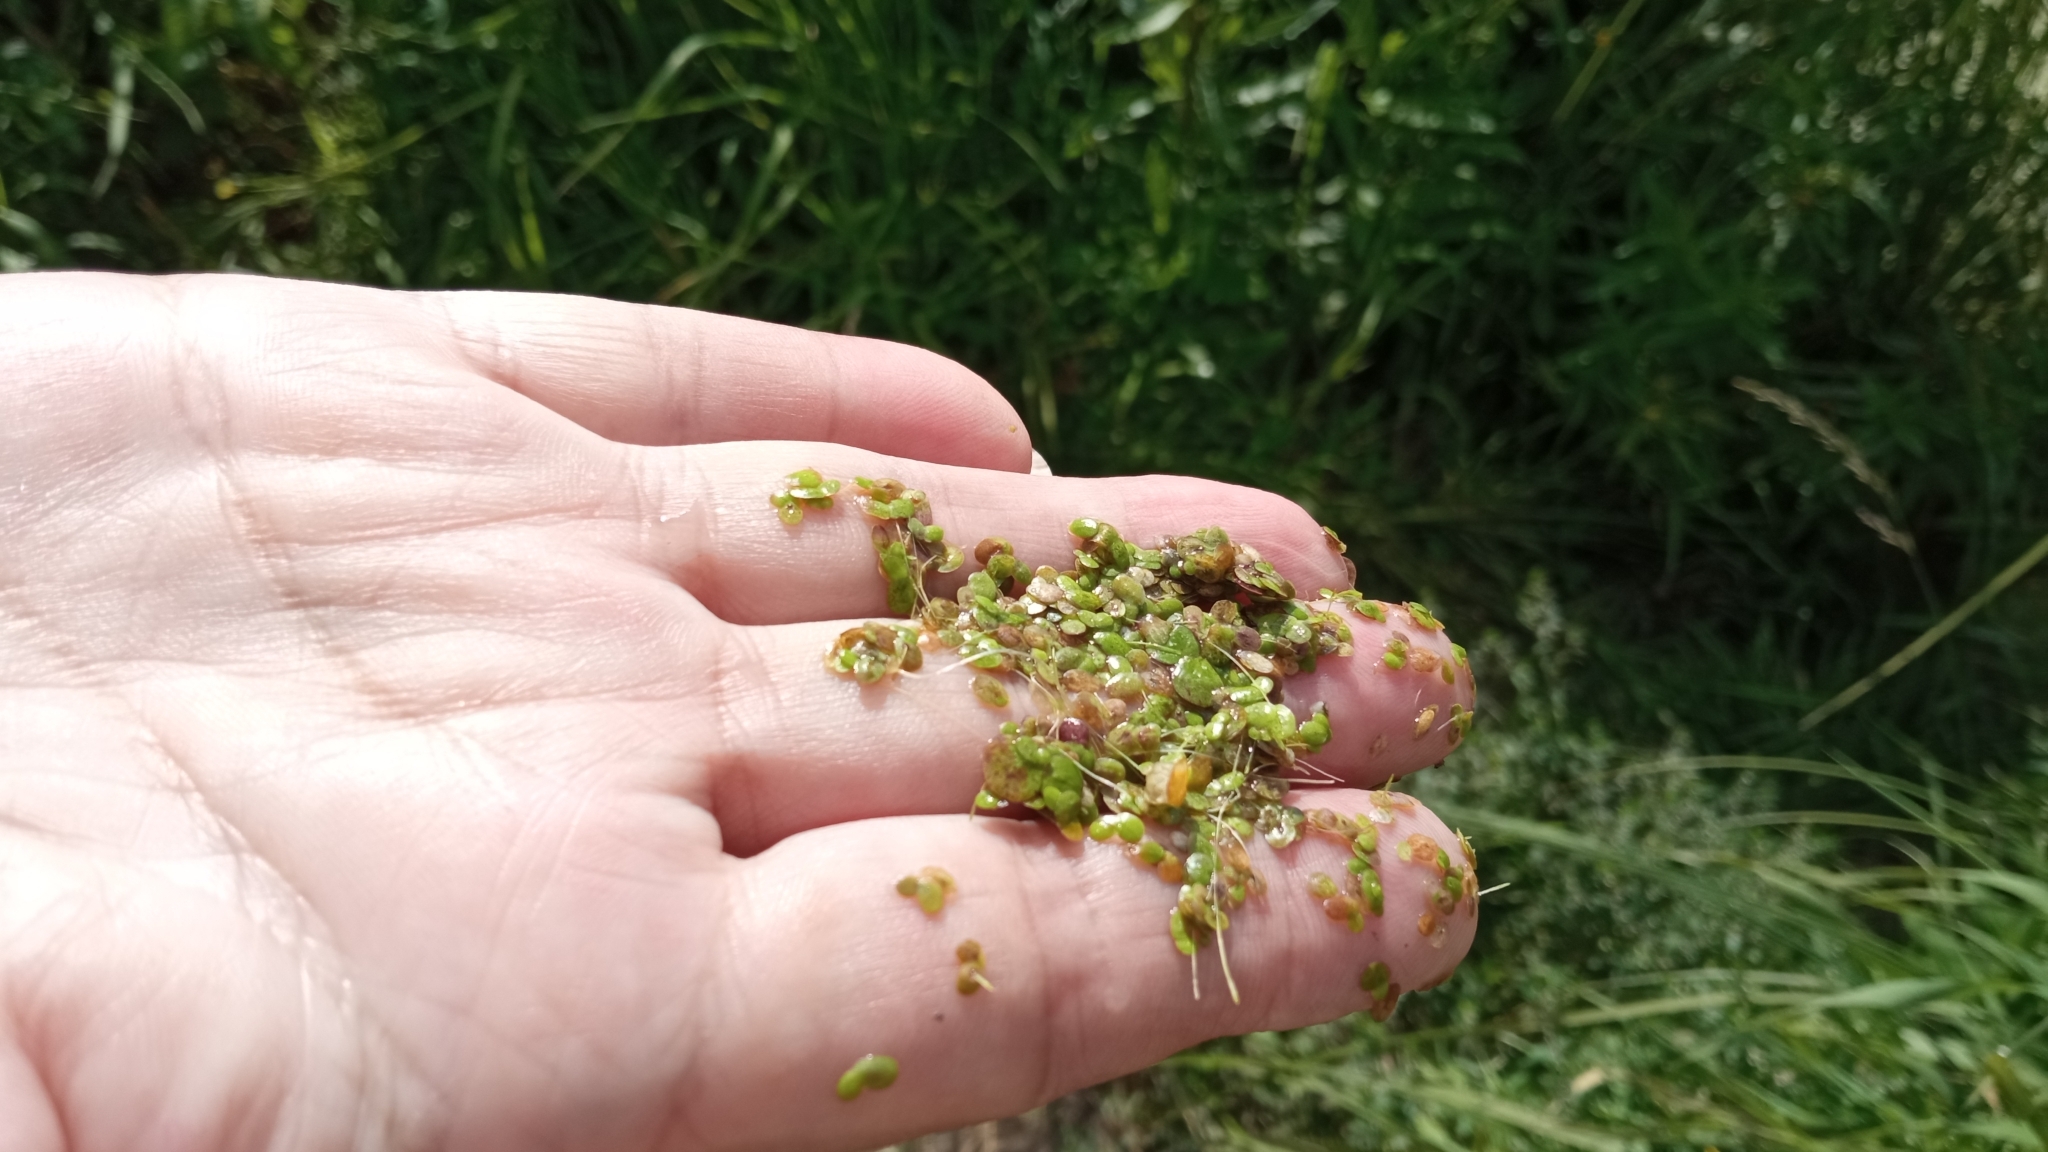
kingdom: Plantae
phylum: Tracheophyta
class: Liliopsida
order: Alismatales
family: Araceae
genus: Lemna
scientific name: Lemna gibba
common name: Fat duckweed
